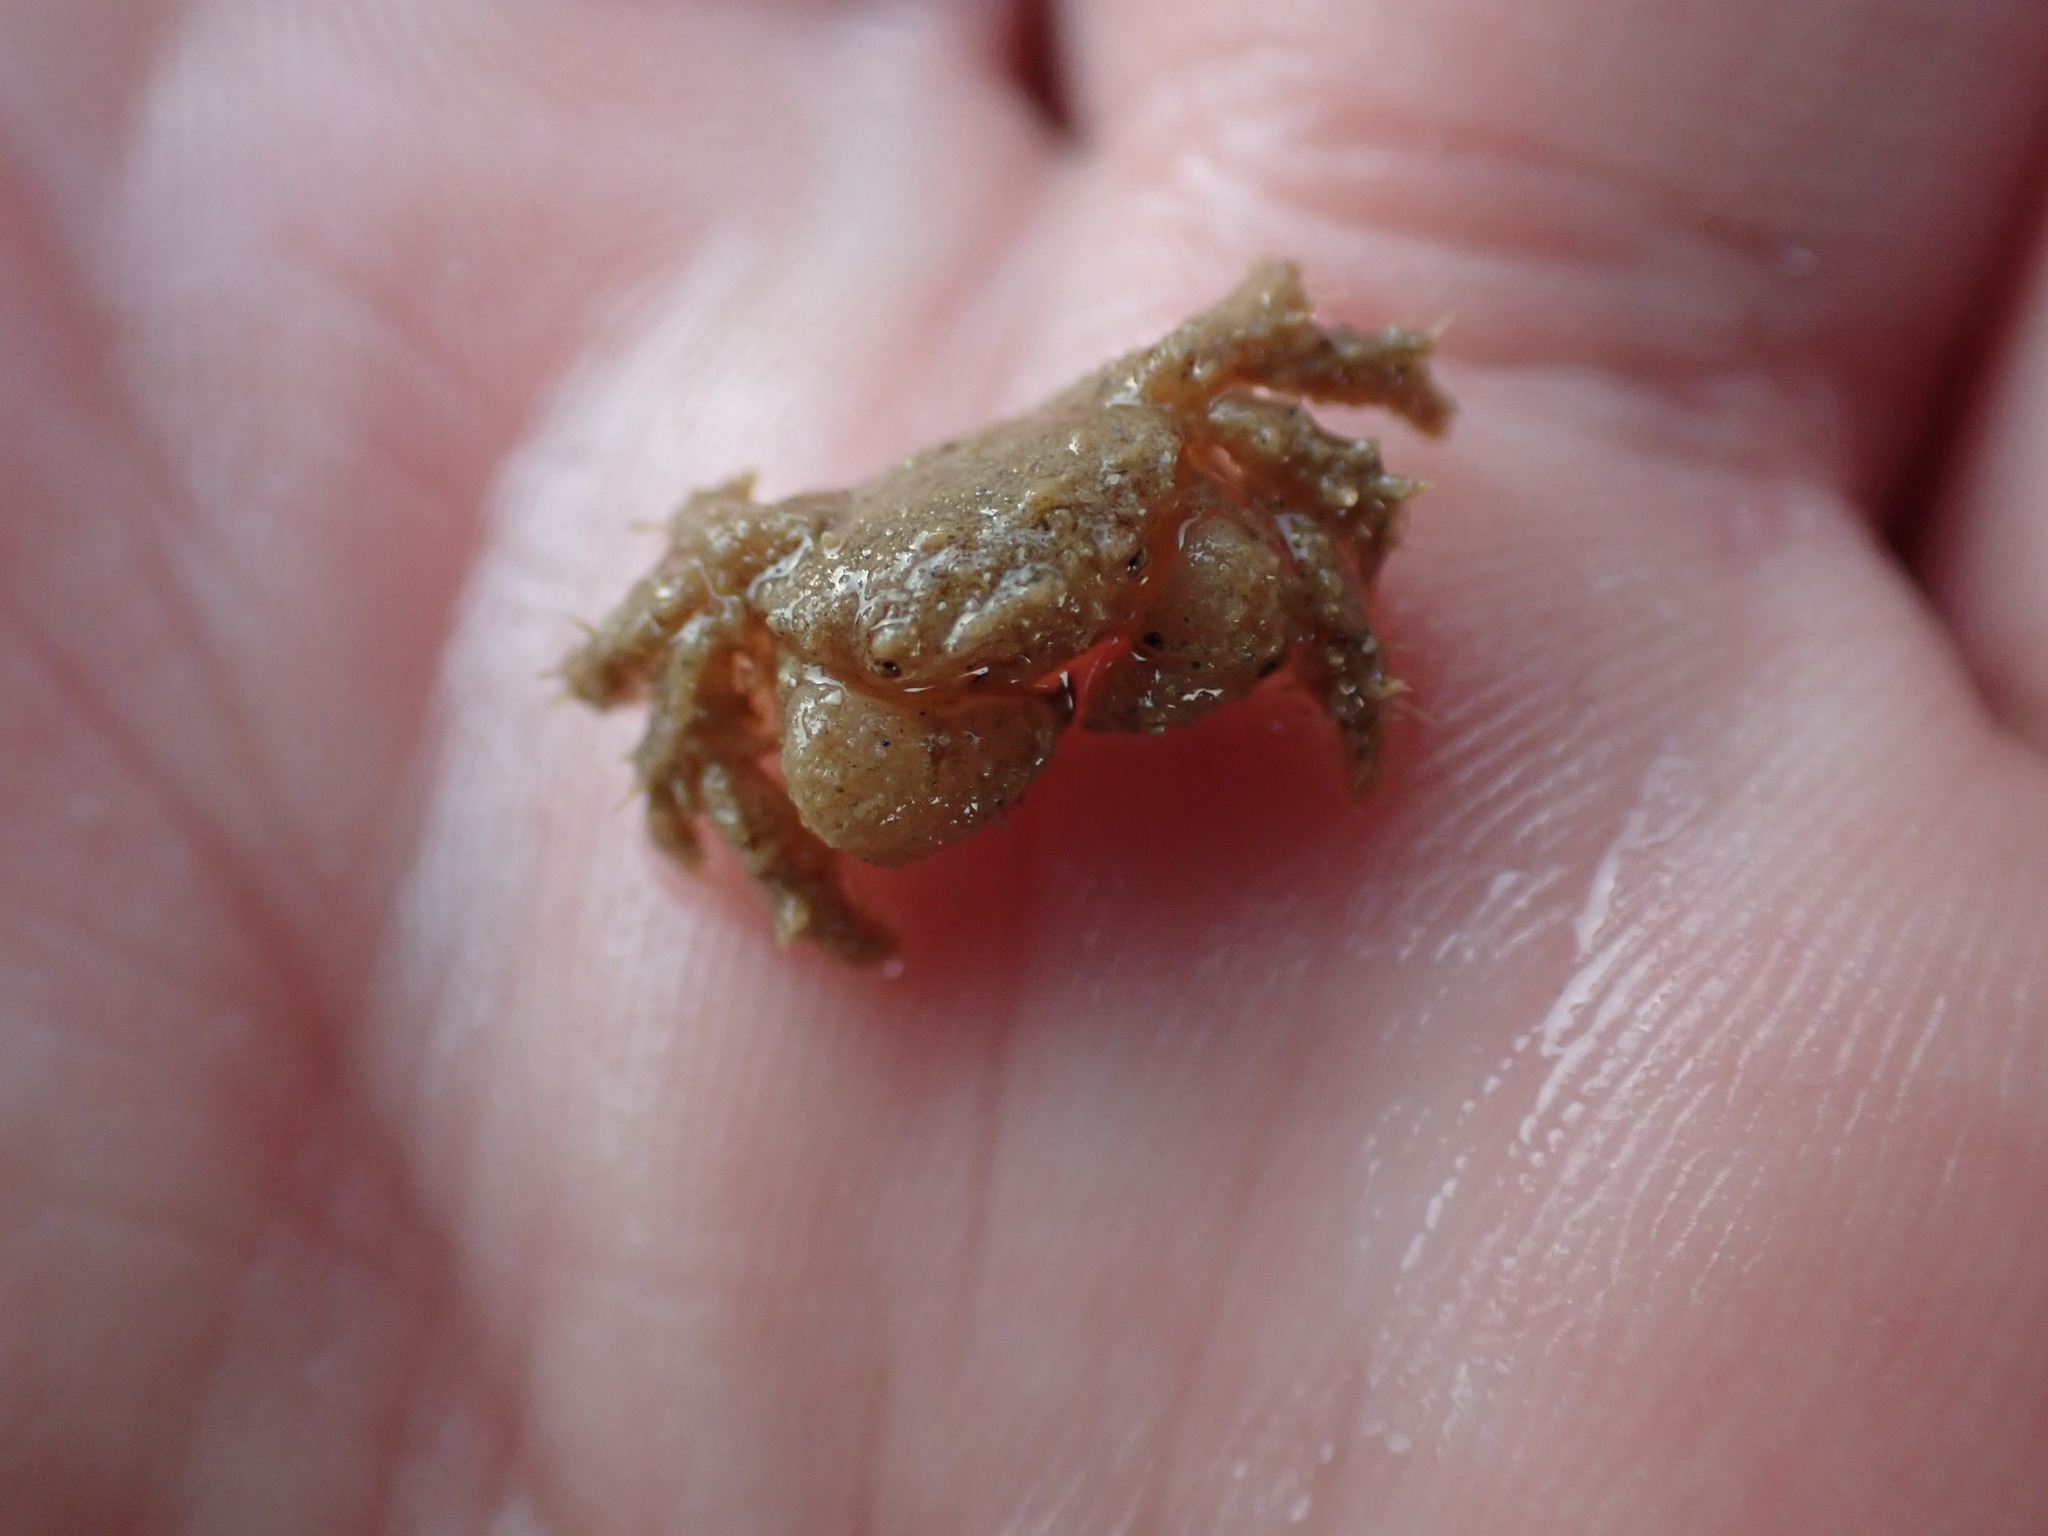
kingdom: Animalia
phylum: Arthropoda
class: Malacostraca
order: Decapoda
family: Pilumnidae
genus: Pilumnus
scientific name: Pilumnus lumpinus
